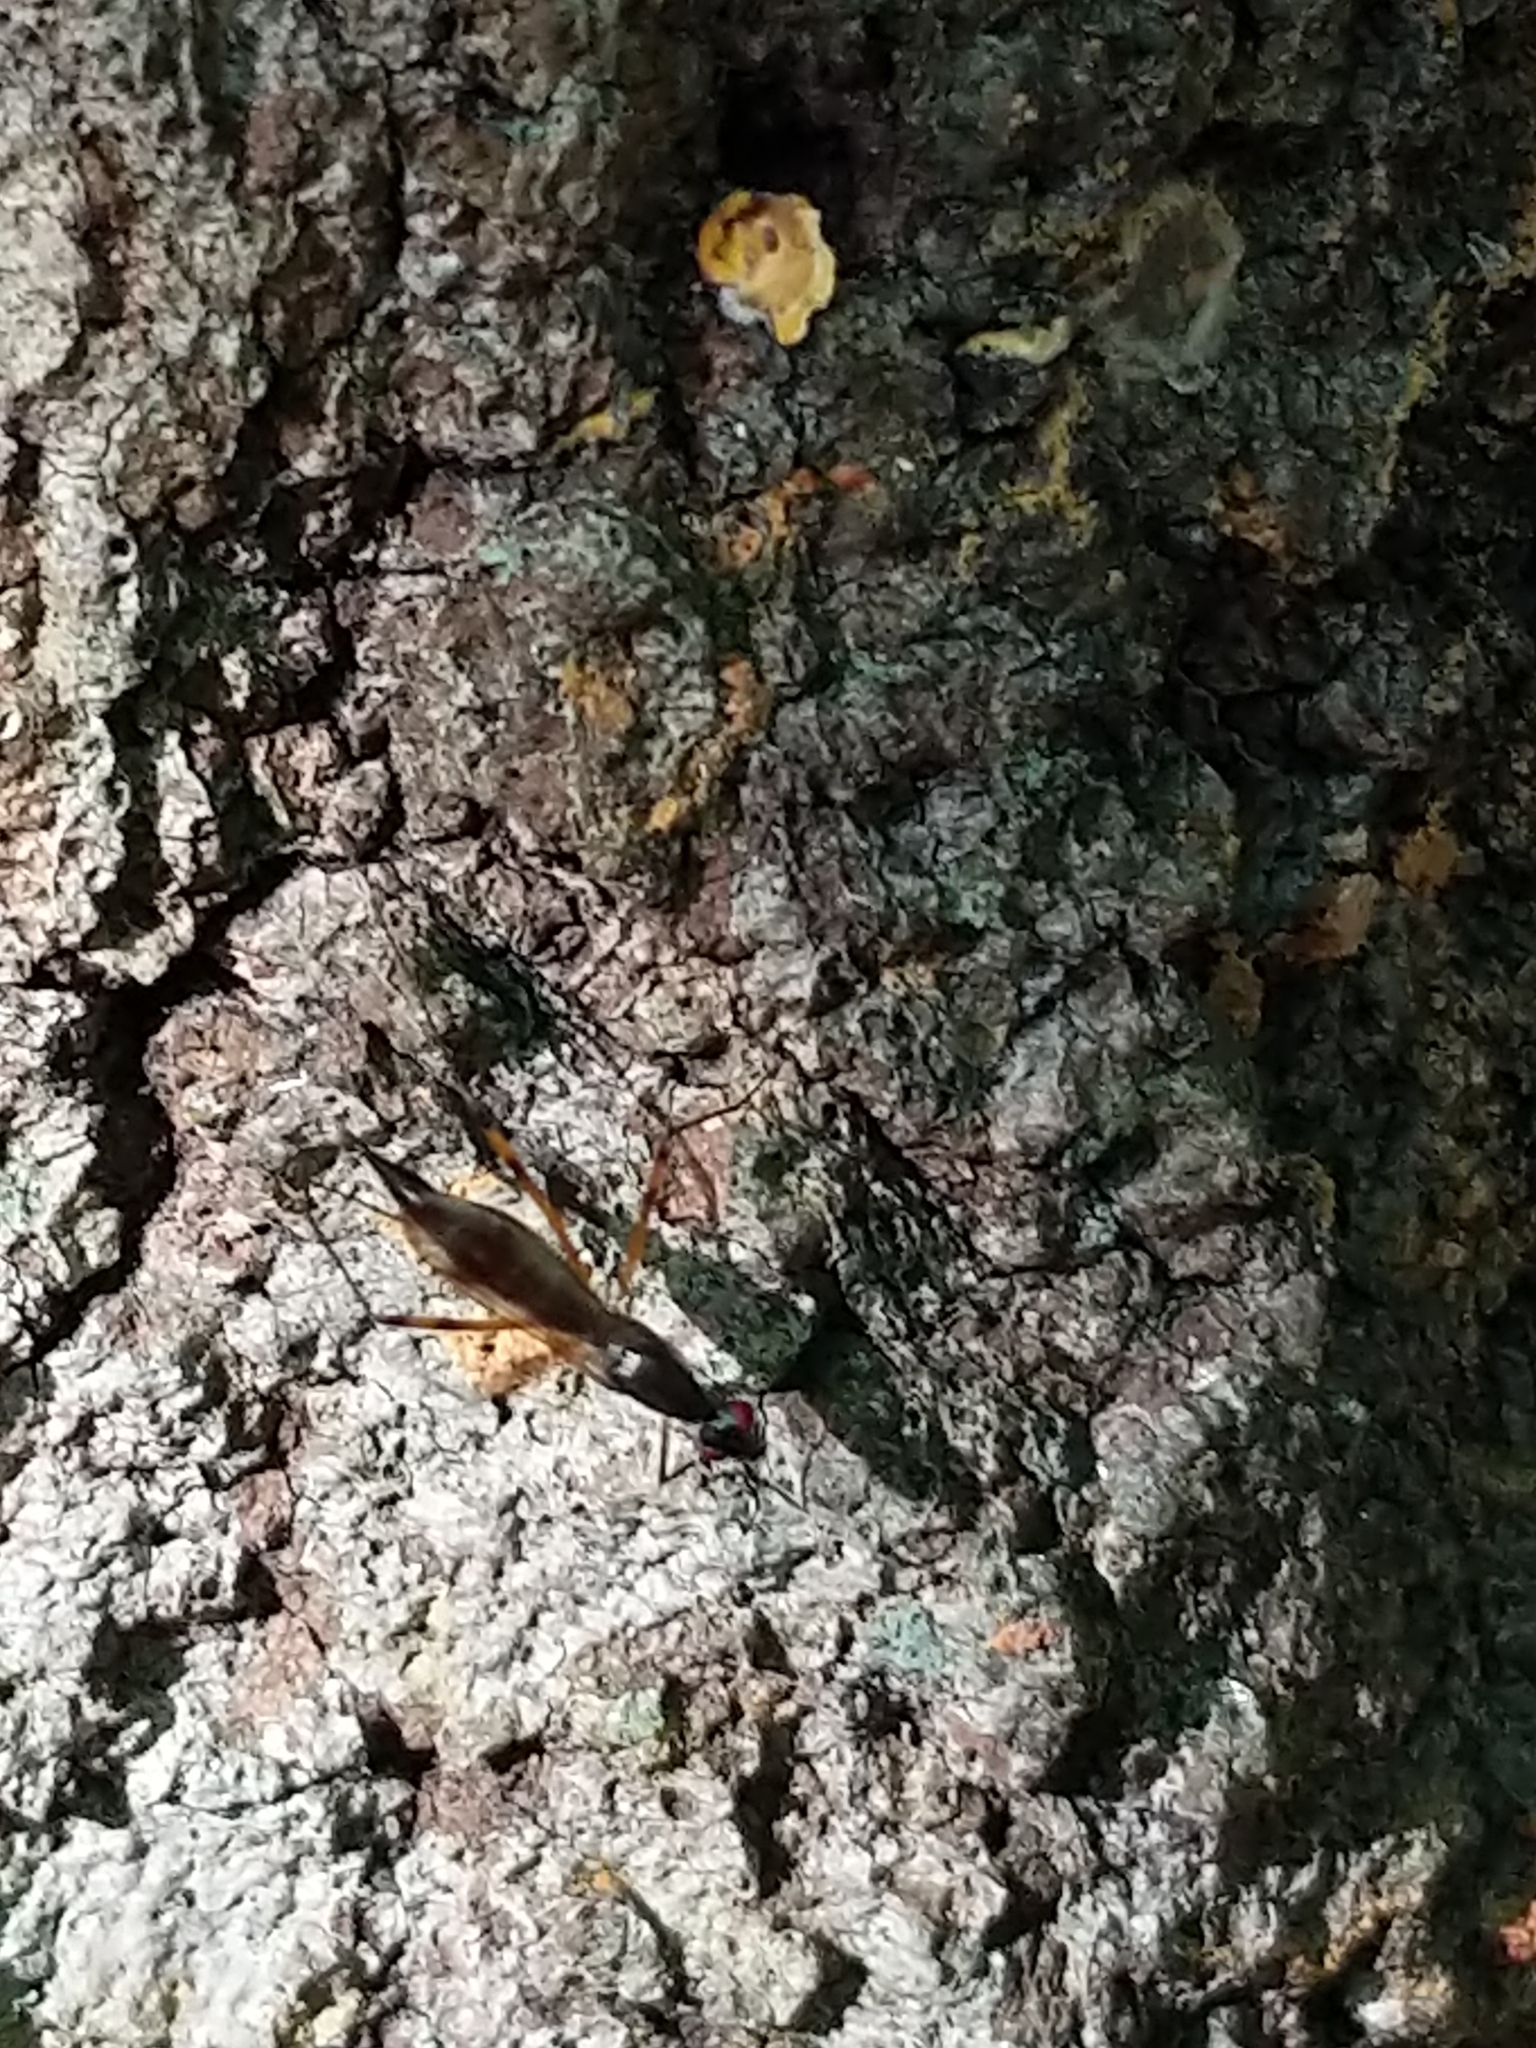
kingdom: Animalia
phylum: Arthropoda
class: Insecta
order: Diptera
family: Micropezidae
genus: Rainieria
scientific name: Rainieria antennaepes
